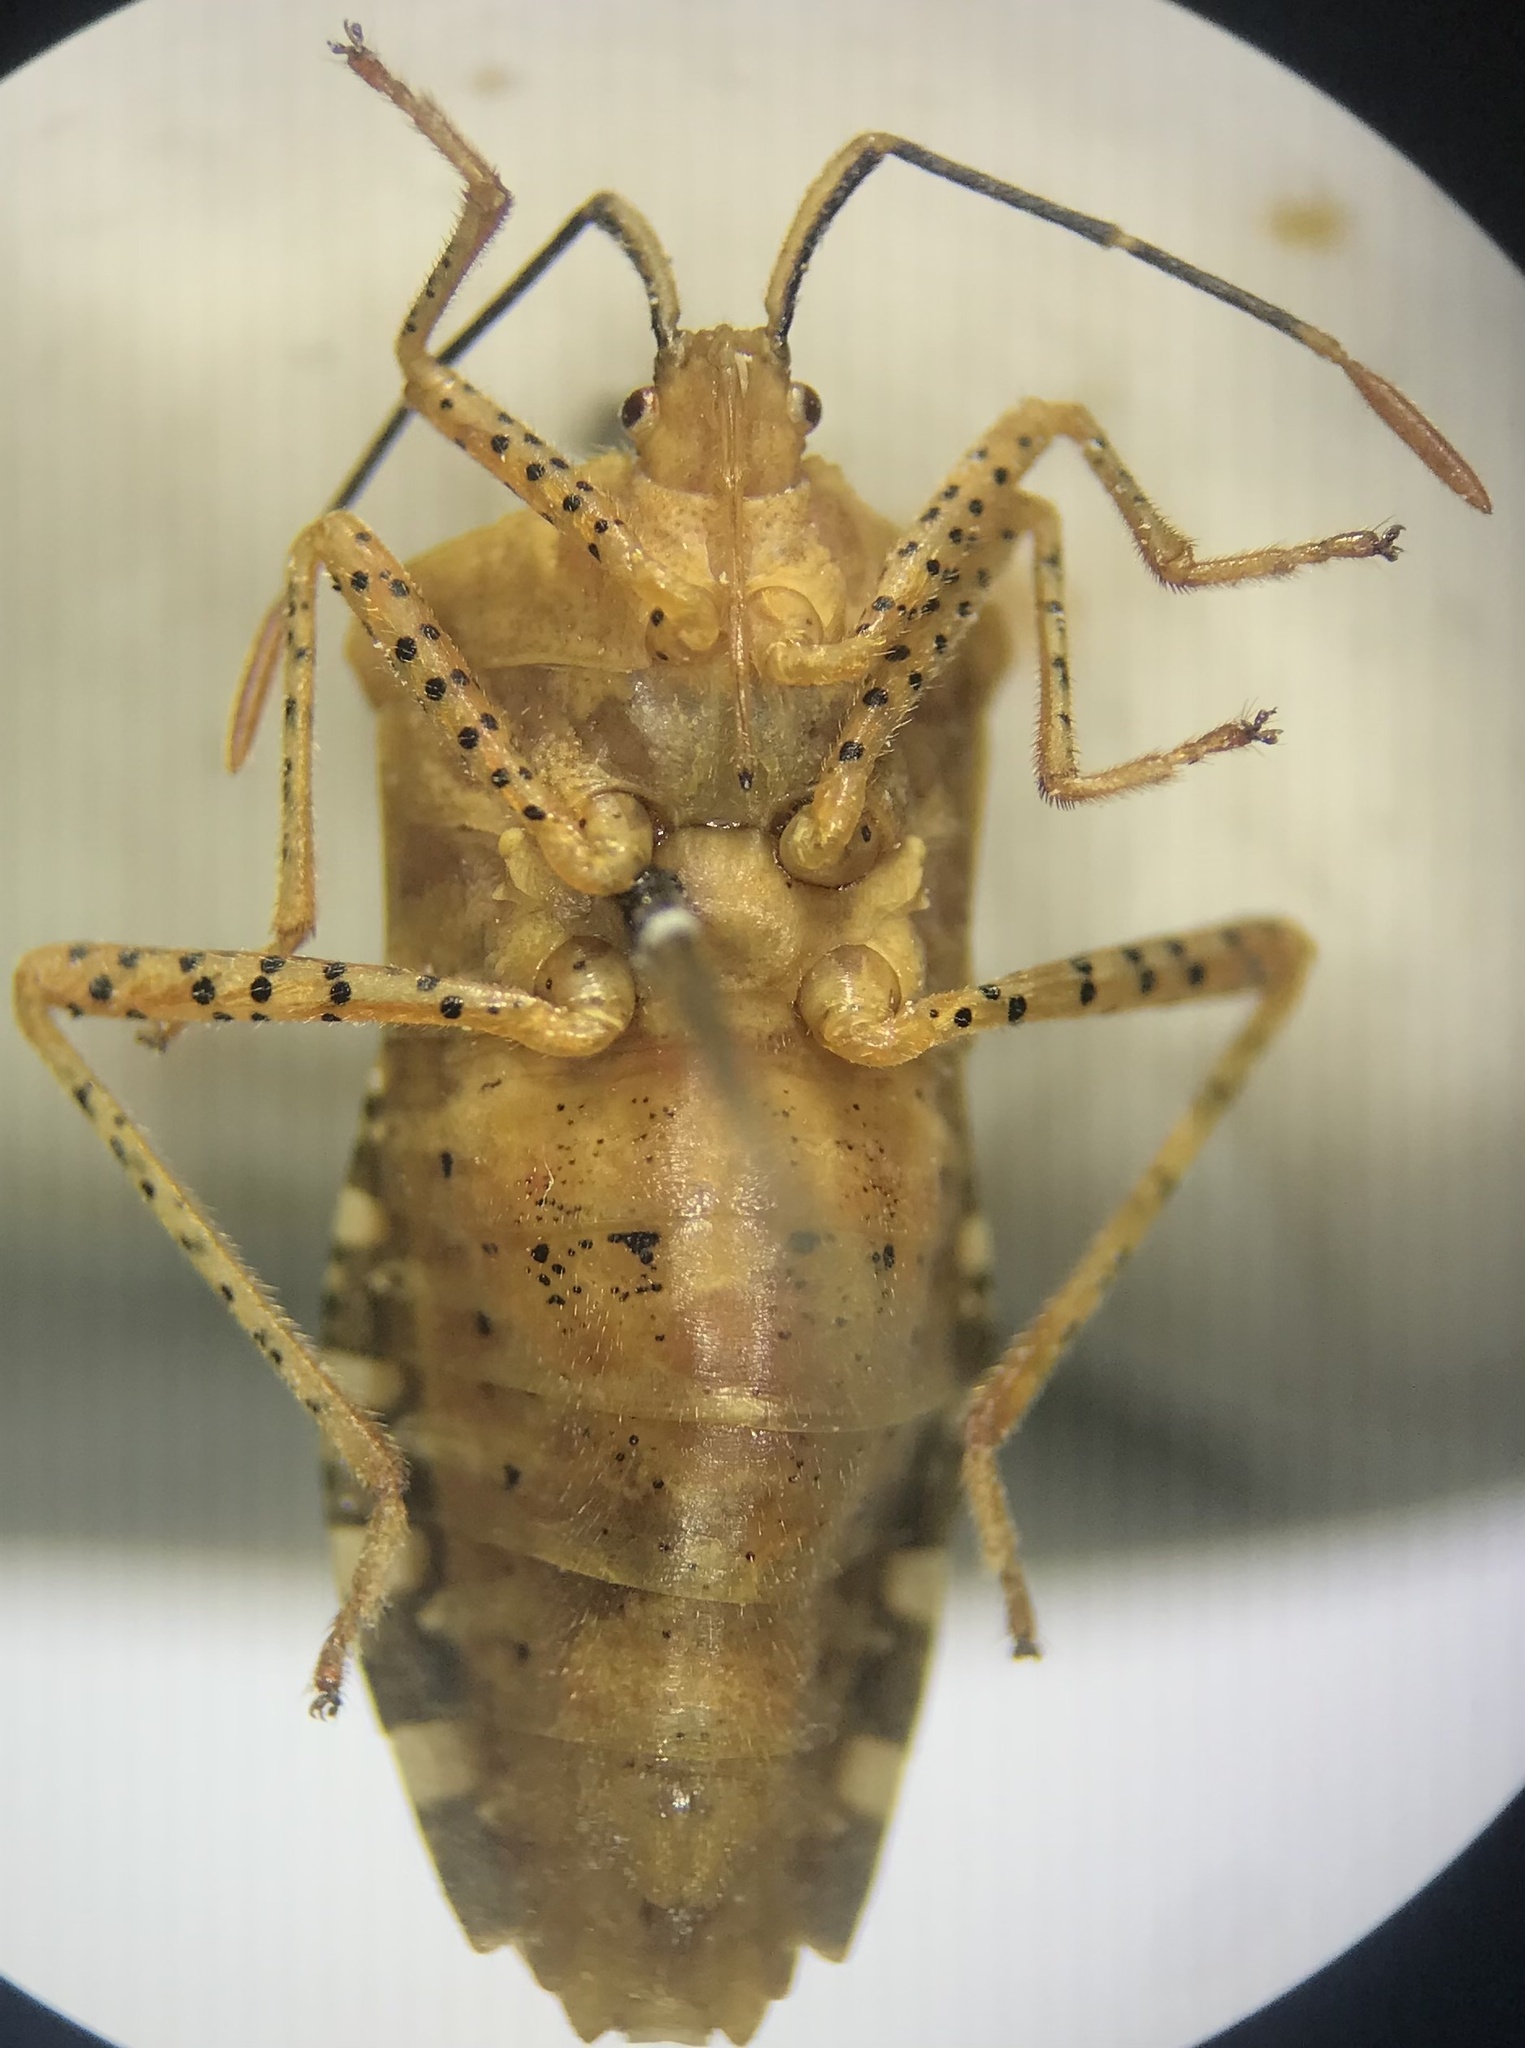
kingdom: Animalia
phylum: Arthropoda
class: Insecta
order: Hemiptera
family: Coreidae
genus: Anasa
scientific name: Anasa repetita
